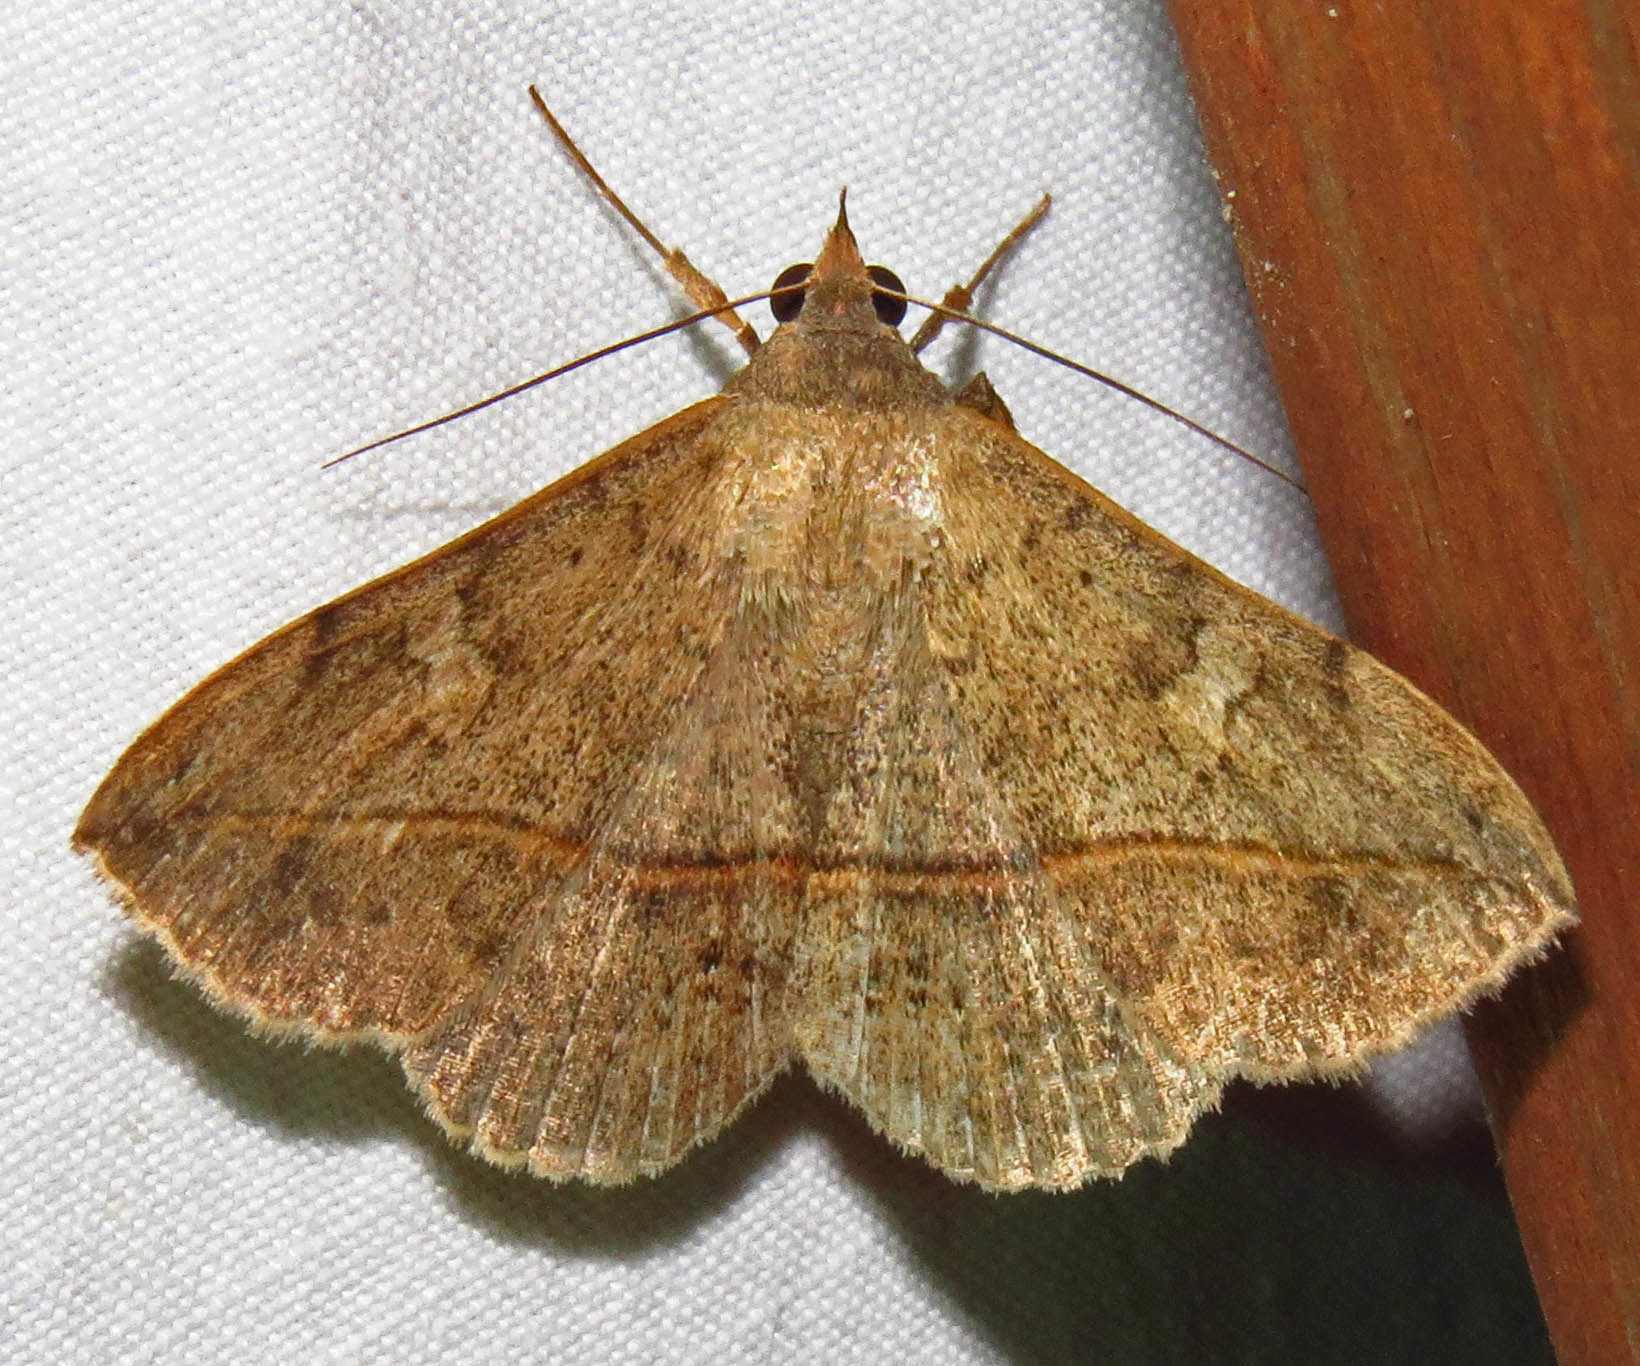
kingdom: Animalia
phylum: Arthropoda
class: Insecta
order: Lepidoptera
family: Erebidae
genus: Anticarsia
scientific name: Anticarsia gemmatalis
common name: Cutworm moth
